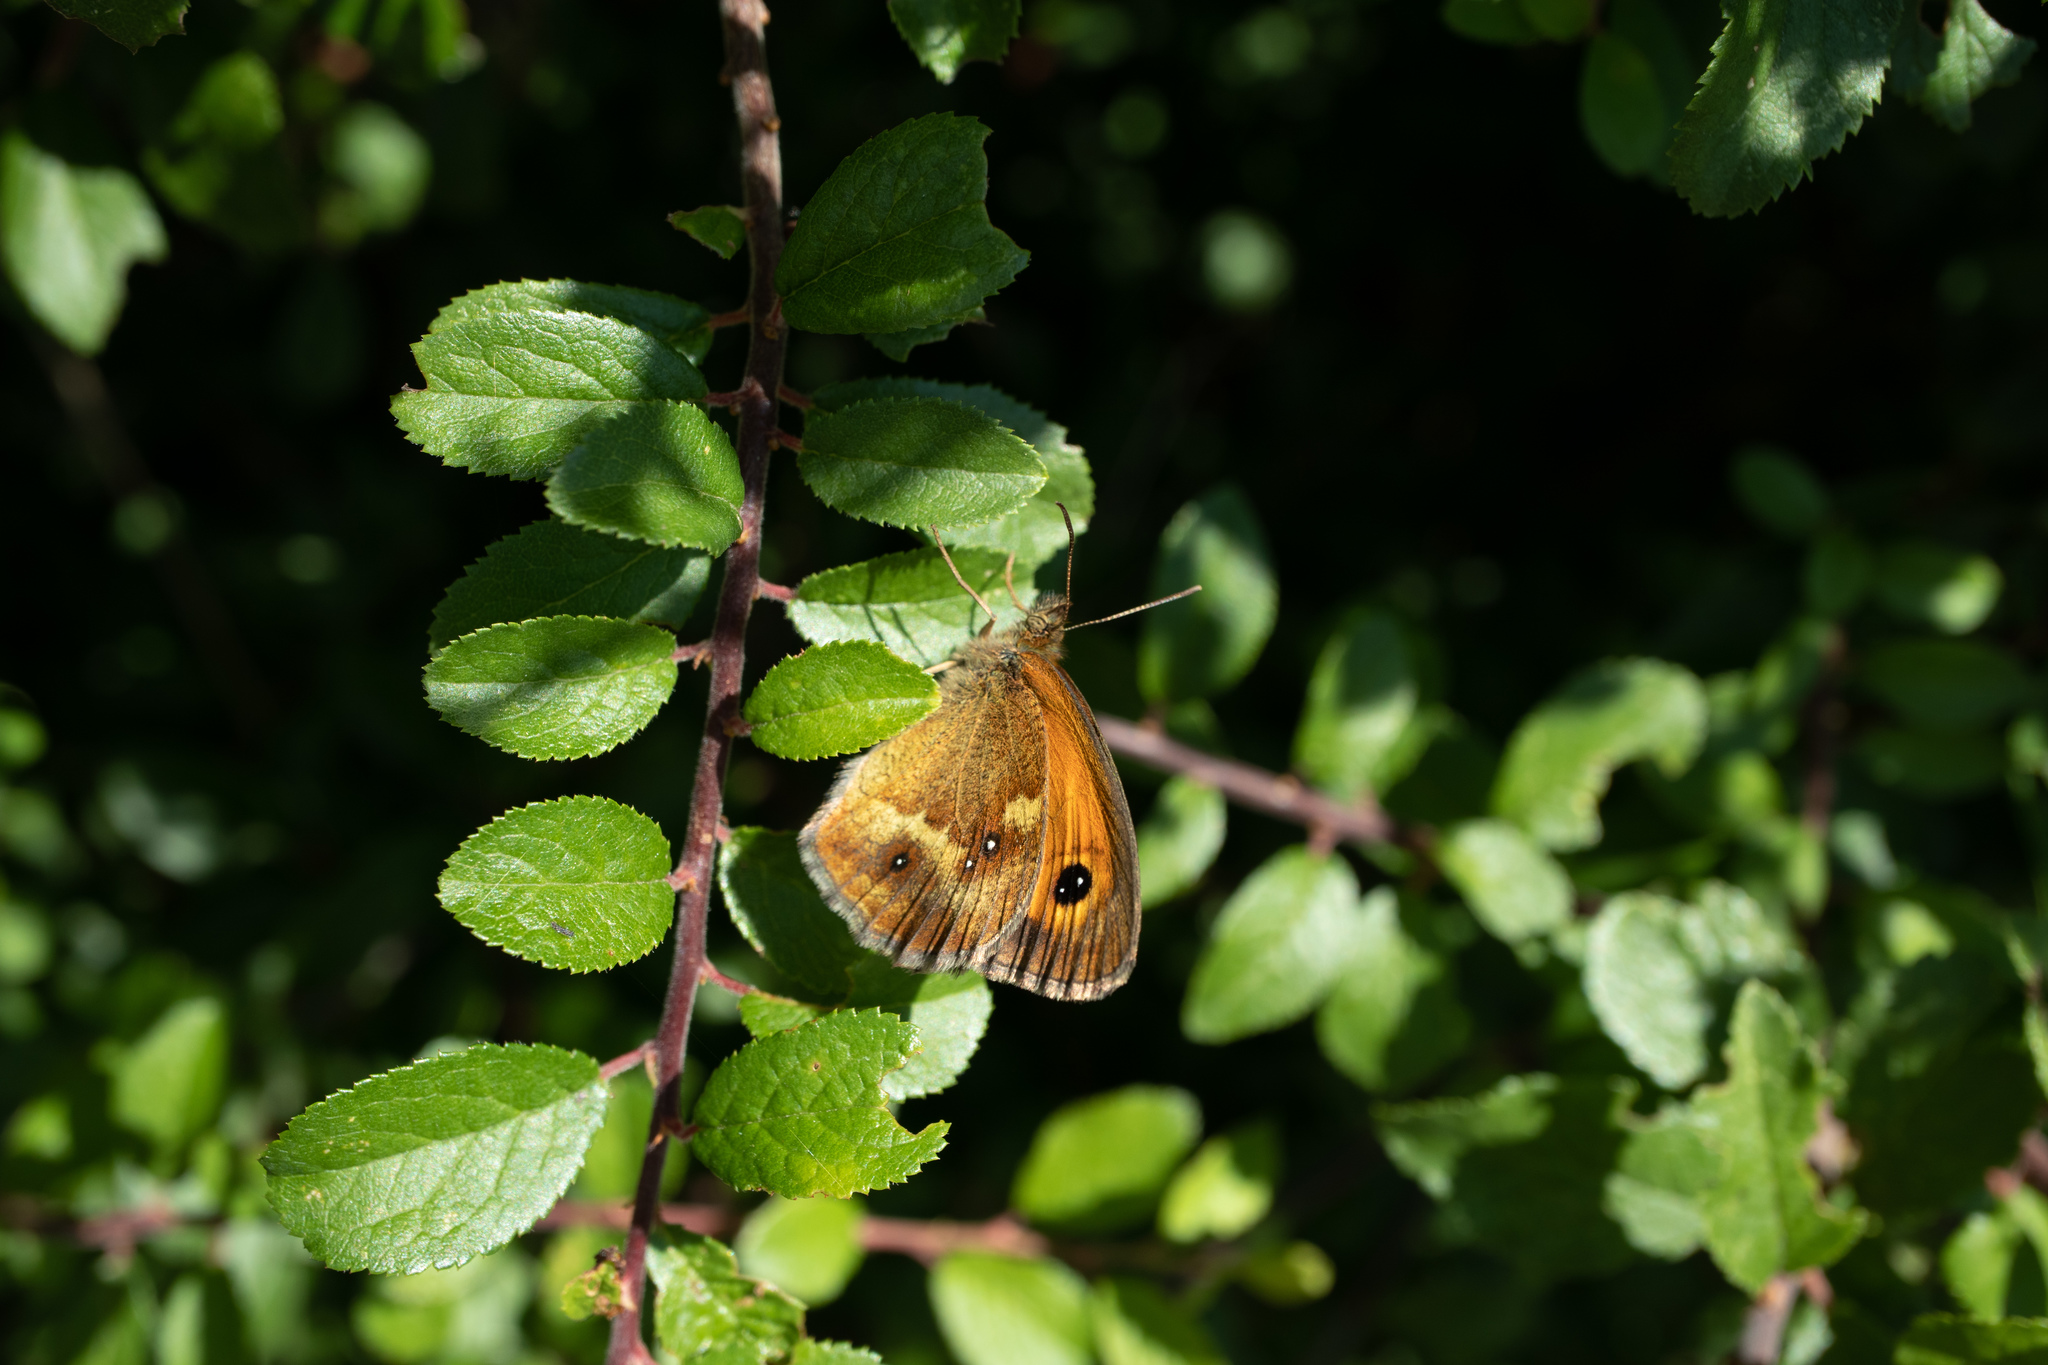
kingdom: Animalia
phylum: Arthropoda
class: Insecta
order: Lepidoptera
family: Nymphalidae
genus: Pyronia
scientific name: Pyronia tithonus
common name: Gatekeeper
